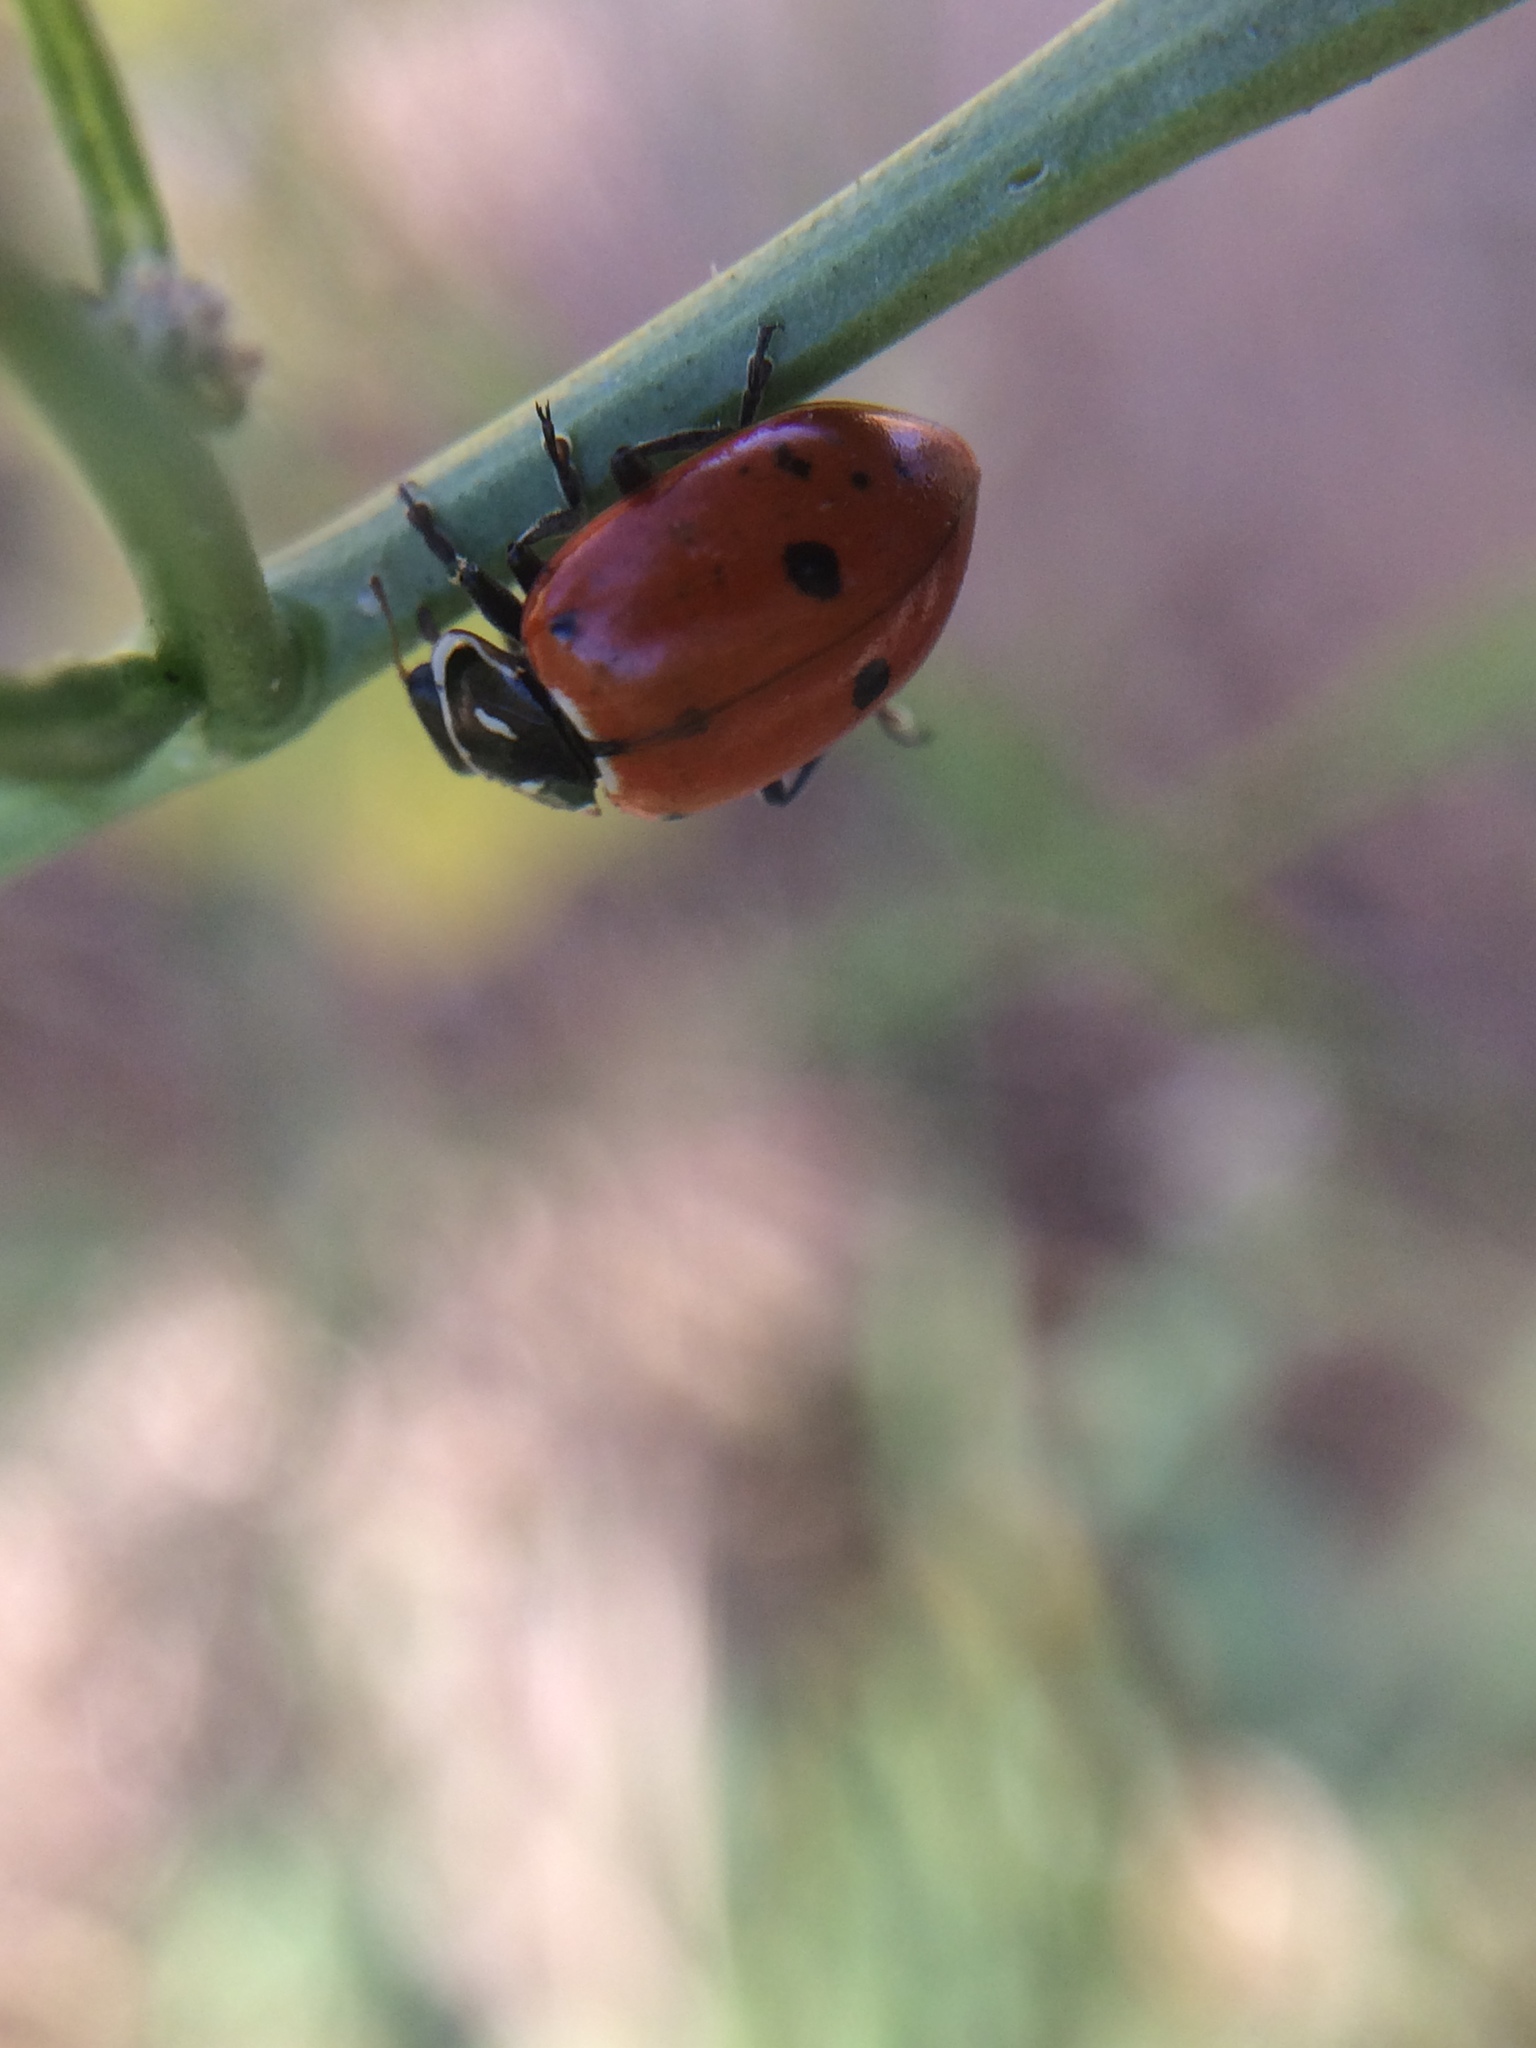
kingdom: Animalia
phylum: Arthropoda
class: Insecta
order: Coleoptera
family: Coccinellidae
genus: Hippodamia
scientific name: Hippodamia convergens
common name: Convergent lady beetle
